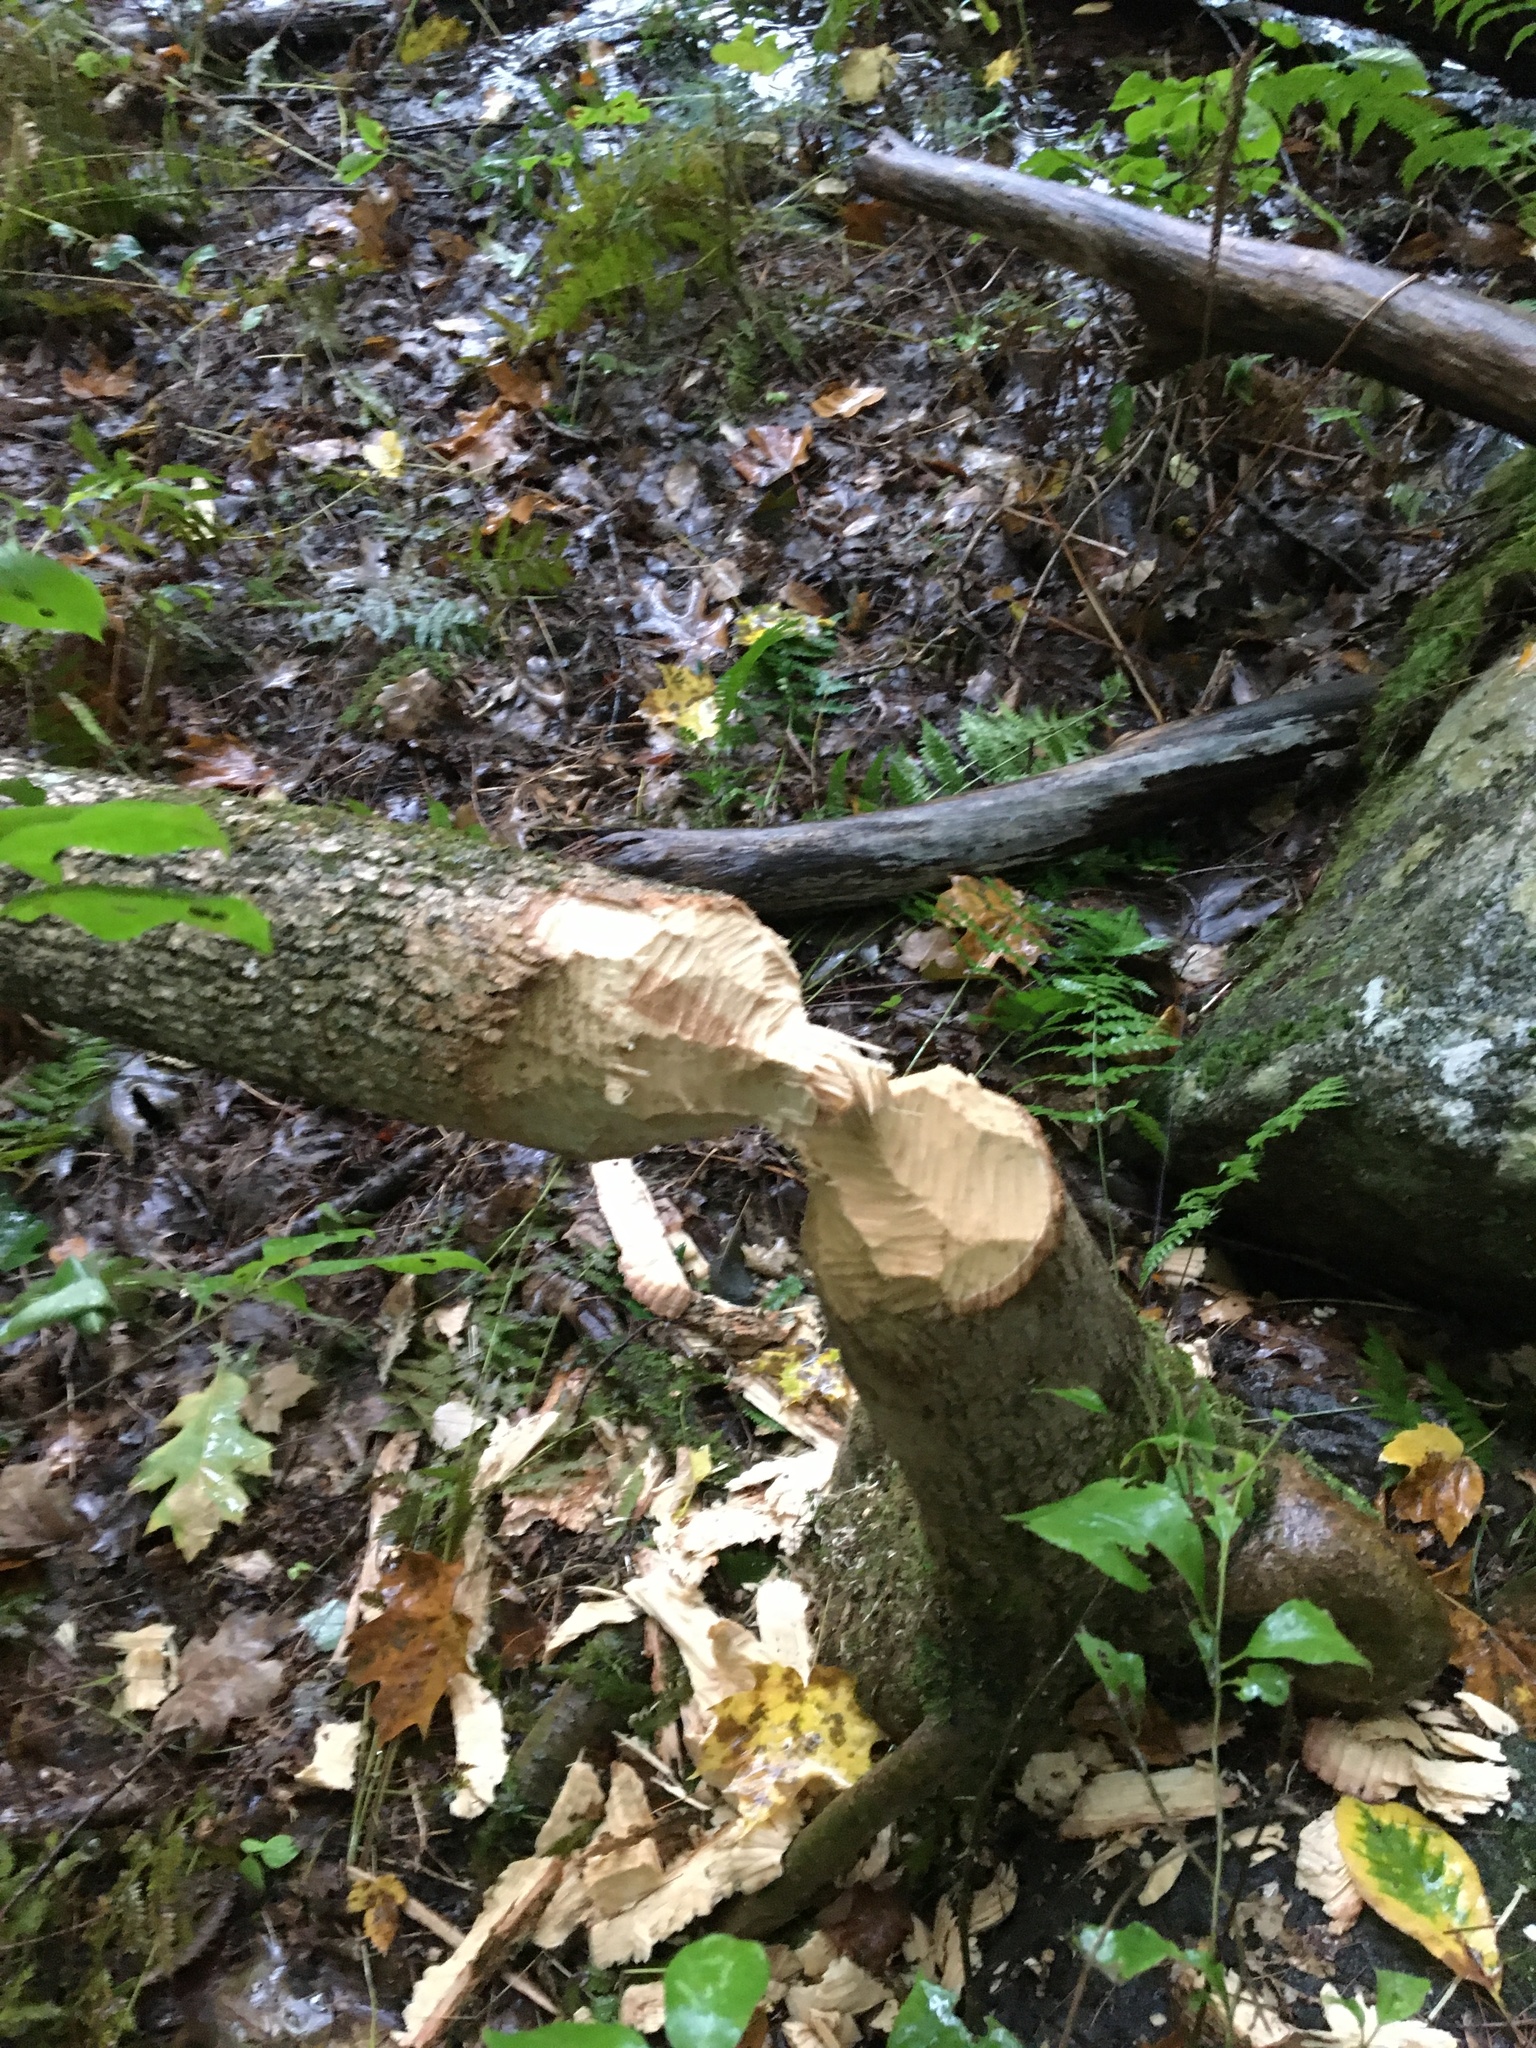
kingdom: Animalia
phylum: Chordata
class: Mammalia
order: Rodentia
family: Castoridae
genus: Castor
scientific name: Castor canadensis
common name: American beaver
